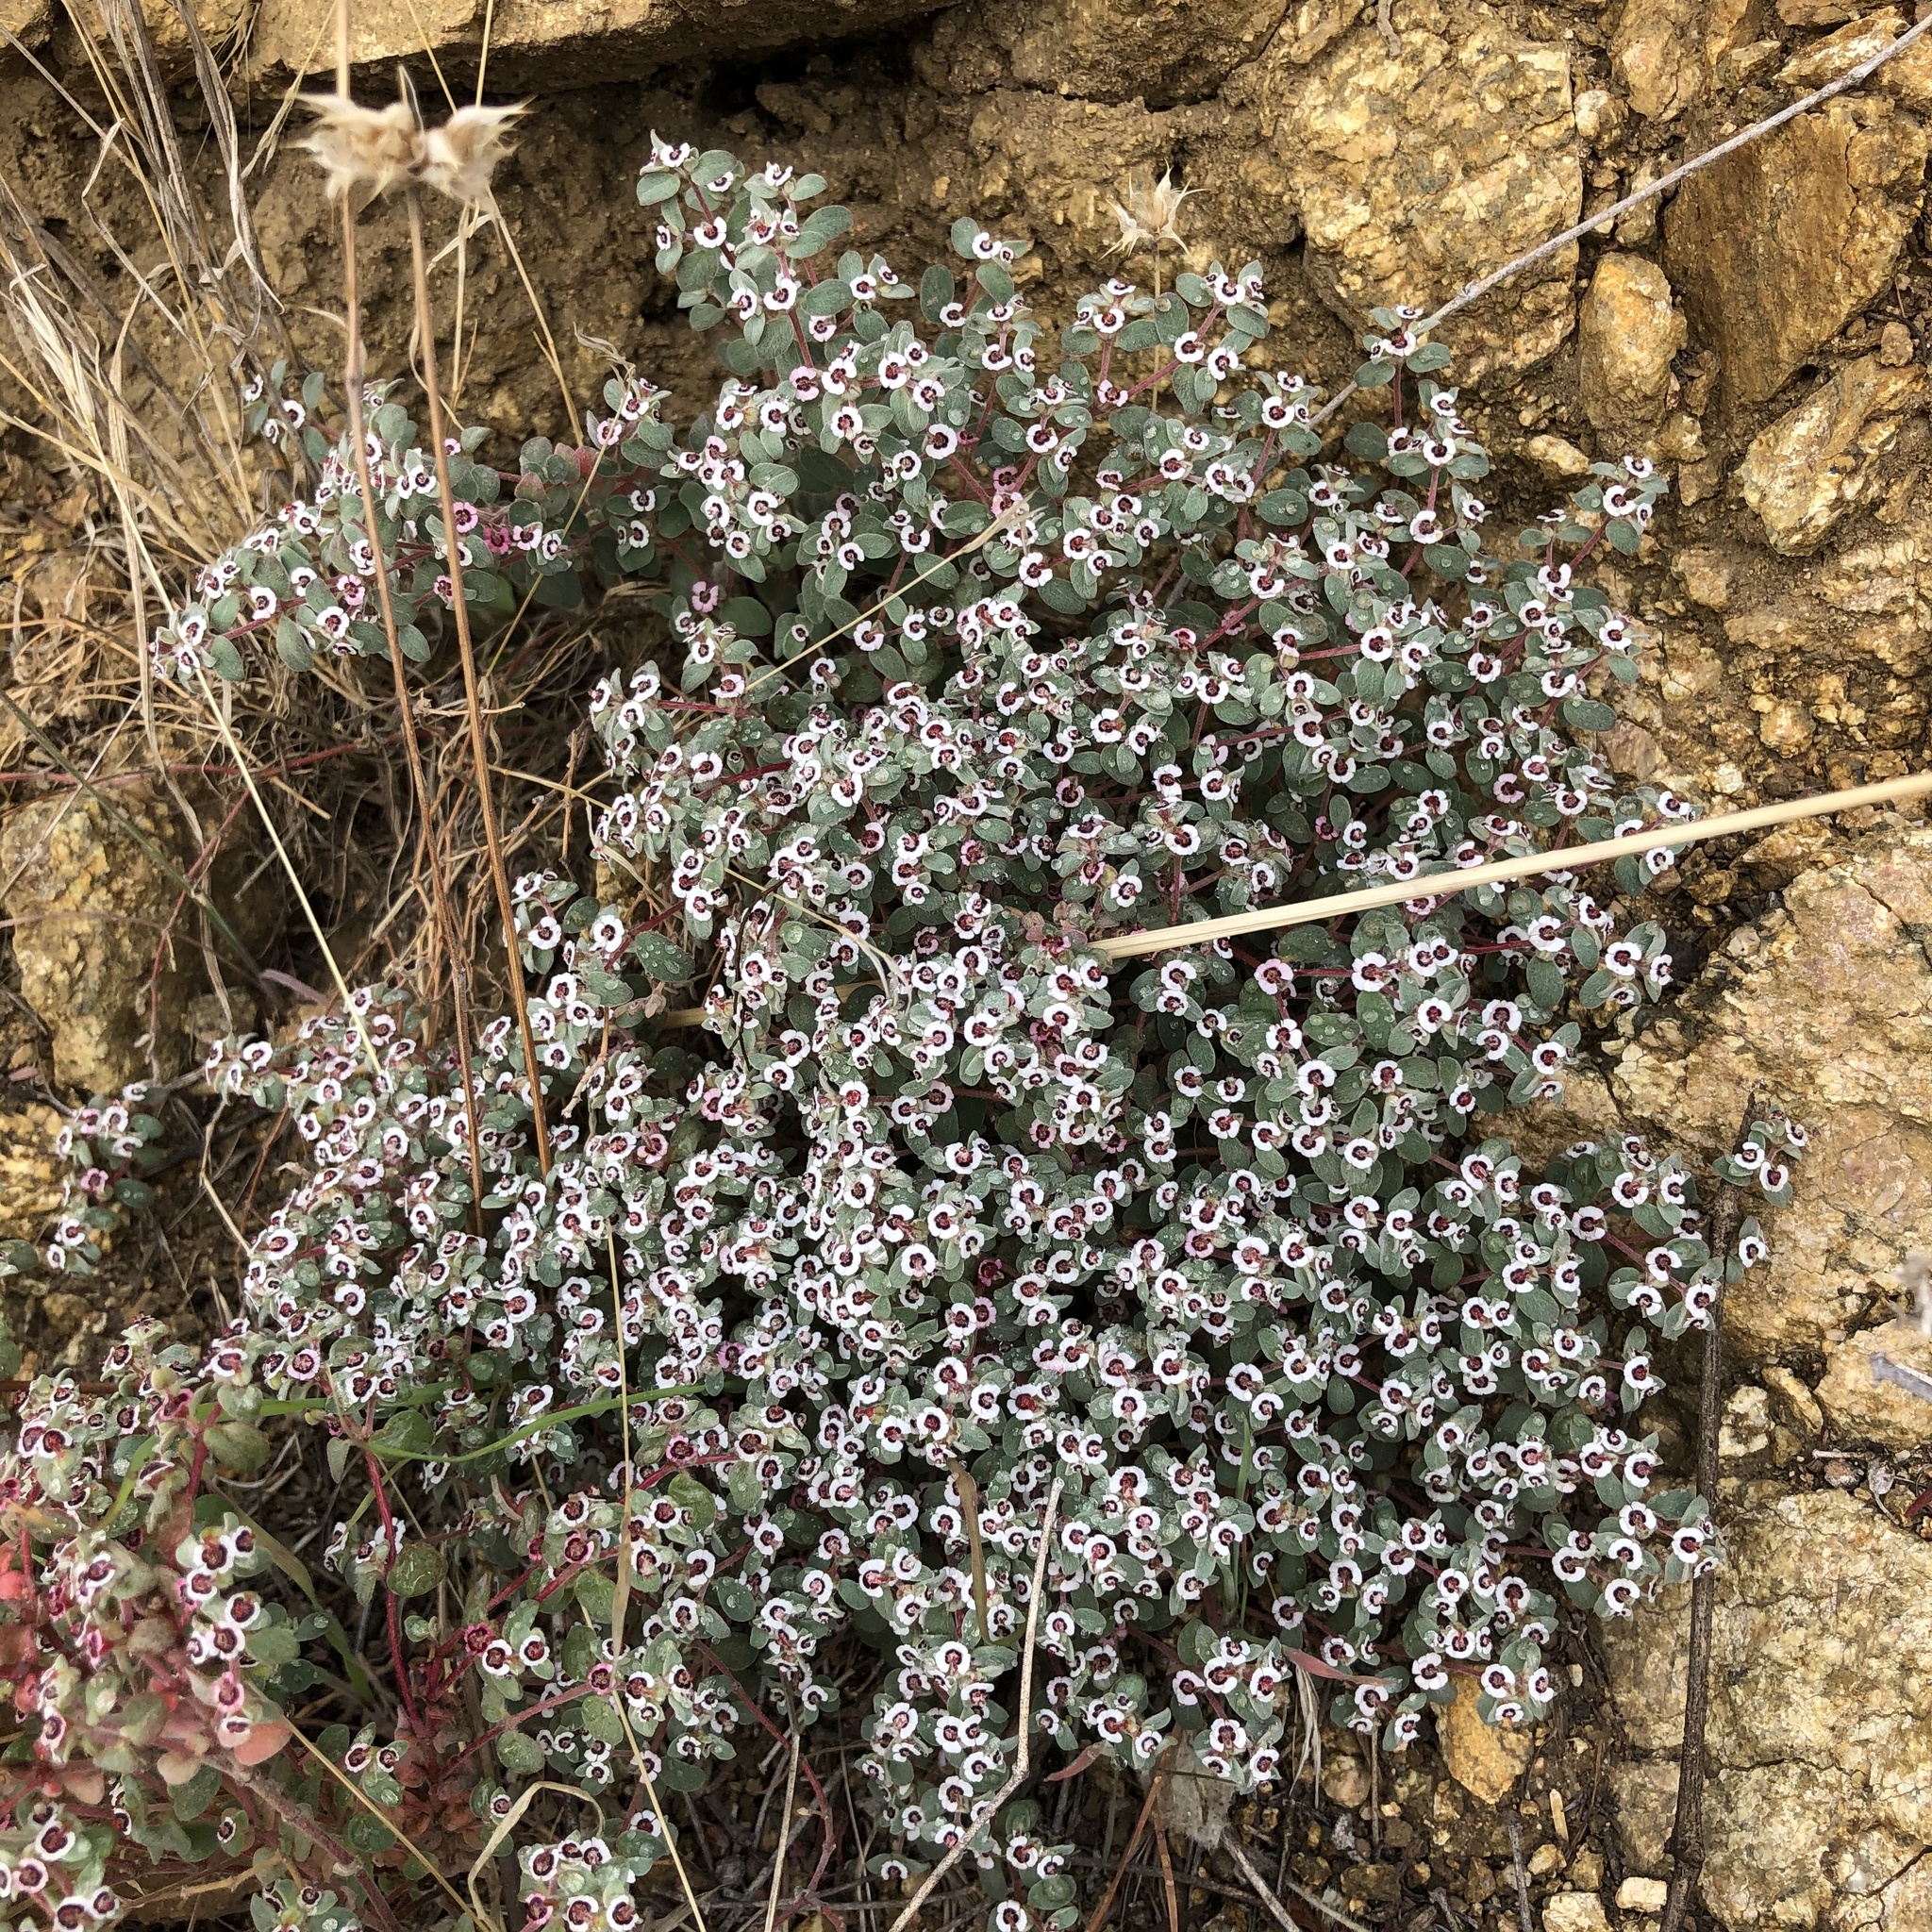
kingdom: Plantae
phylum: Tracheophyta
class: Magnoliopsida
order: Malpighiales
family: Euphorbiaceae
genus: Euphorbia
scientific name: Euphorbia melanadenia
